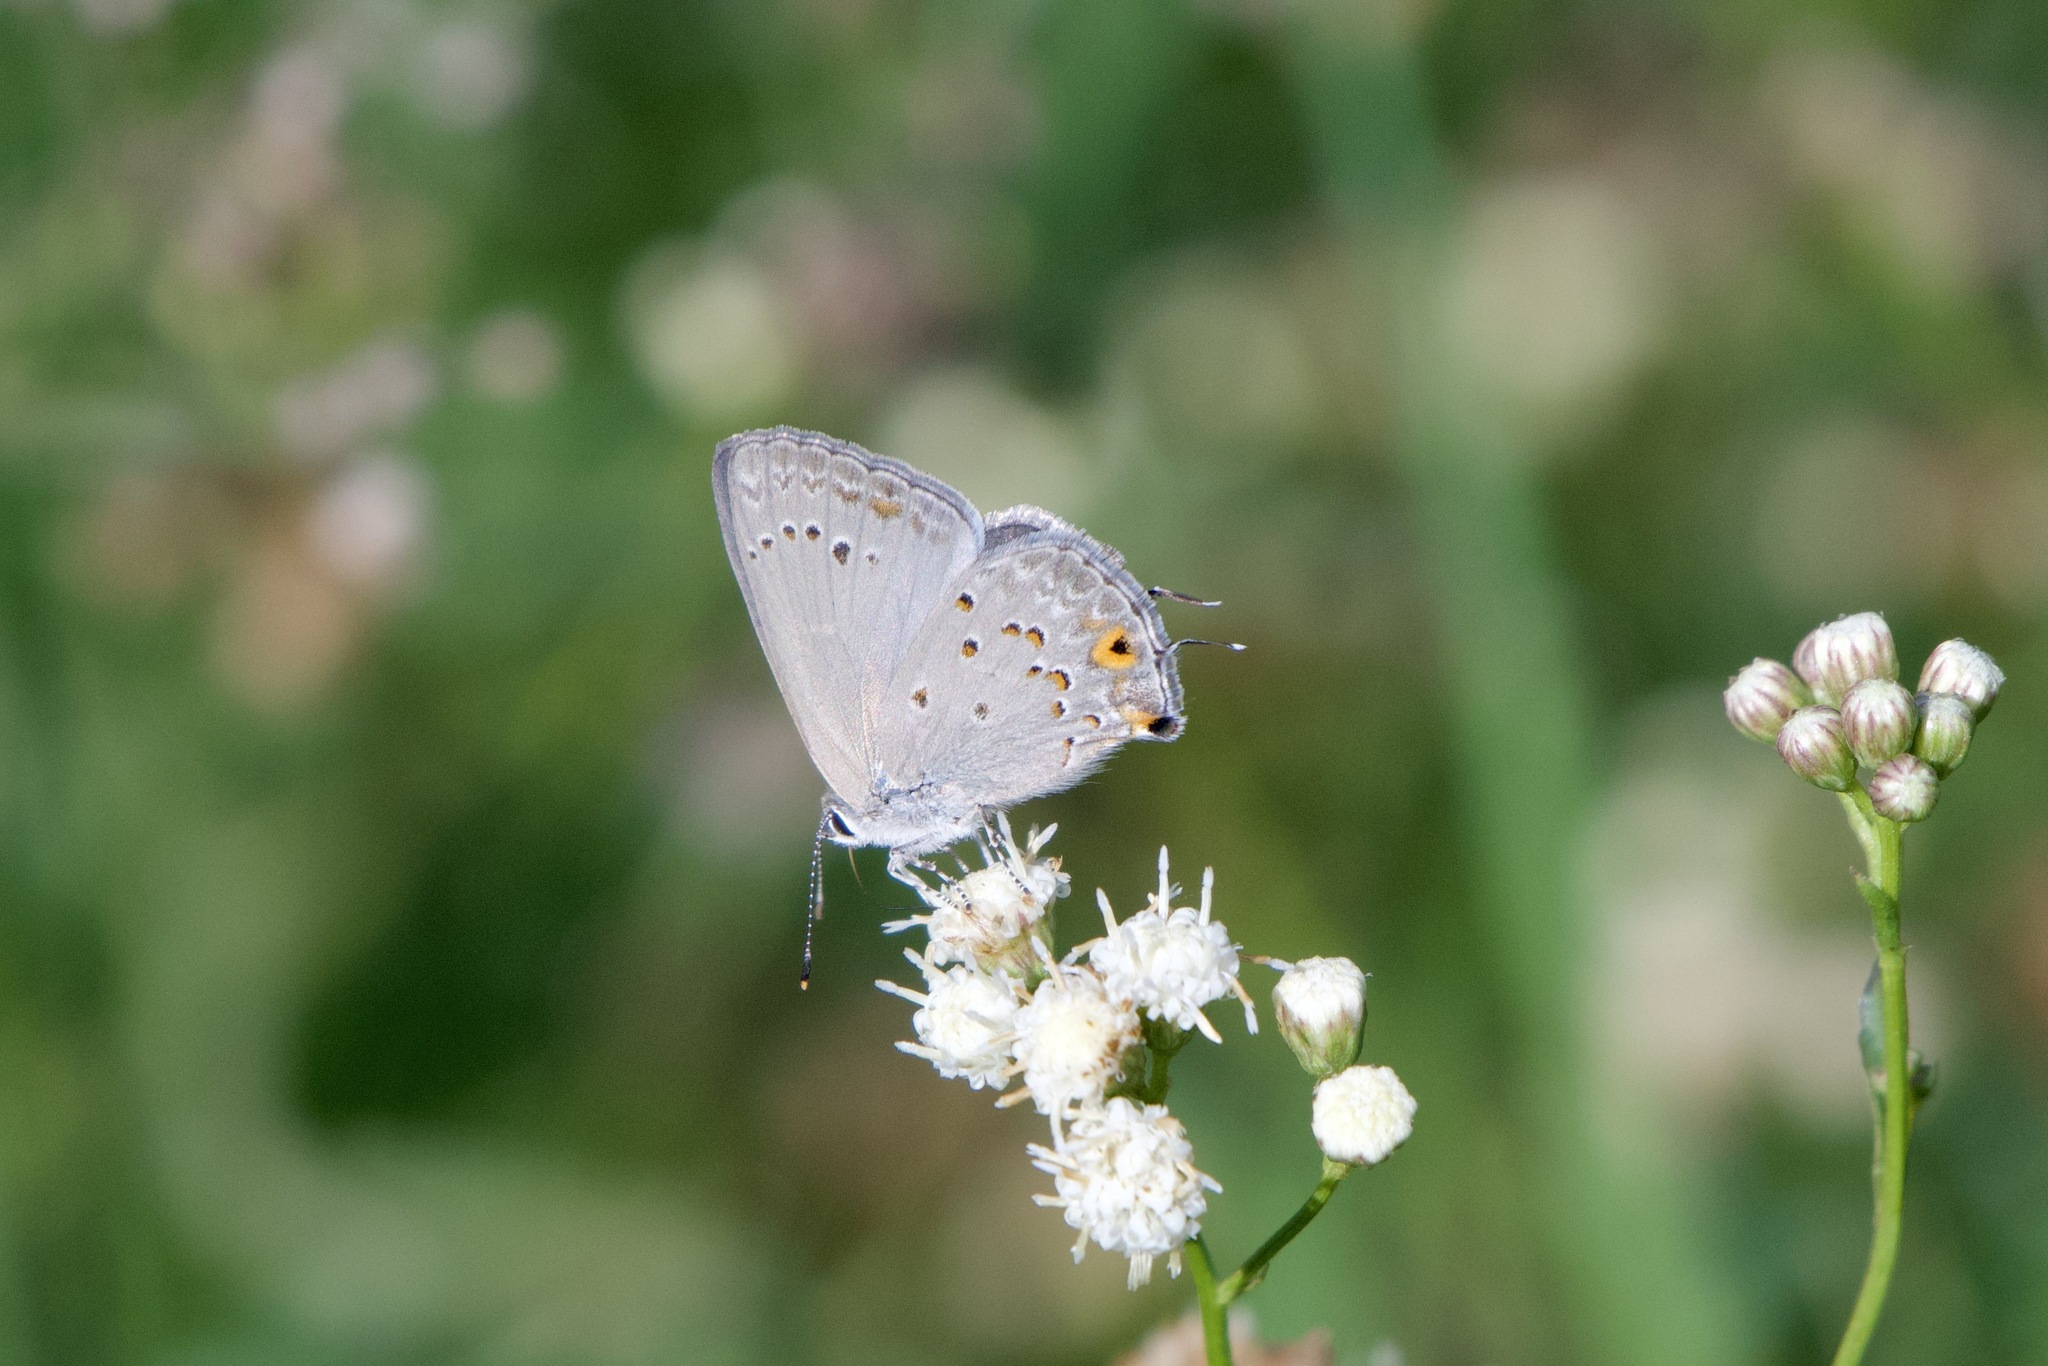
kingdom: Animalia
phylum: Arthropoda
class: Insecta
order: Lepidoptera
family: Lycaenidae
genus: Strymon
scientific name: Strymon eurytulus
